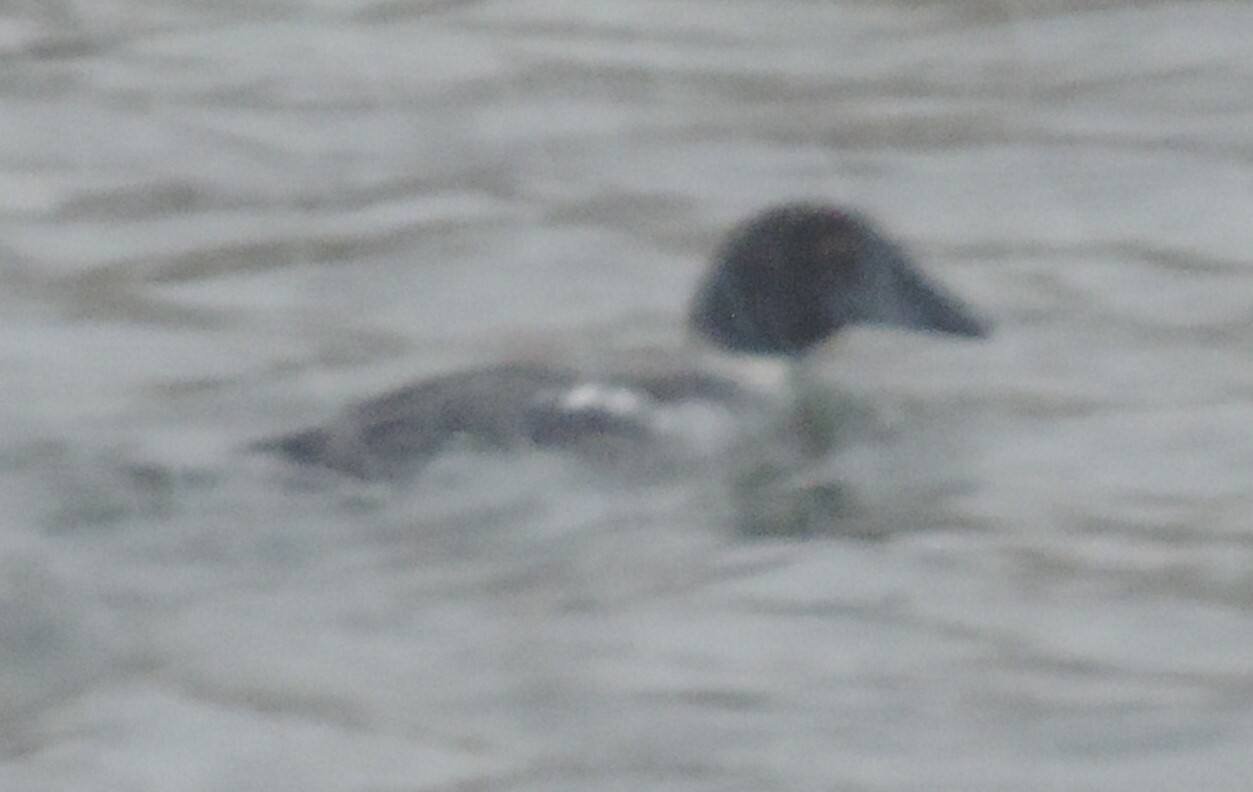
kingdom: Animalia
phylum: Chordata
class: Aves
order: Anseriformes
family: Anatidae
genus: Bucephala
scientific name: Bucephala clangula
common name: Common goldeneye
